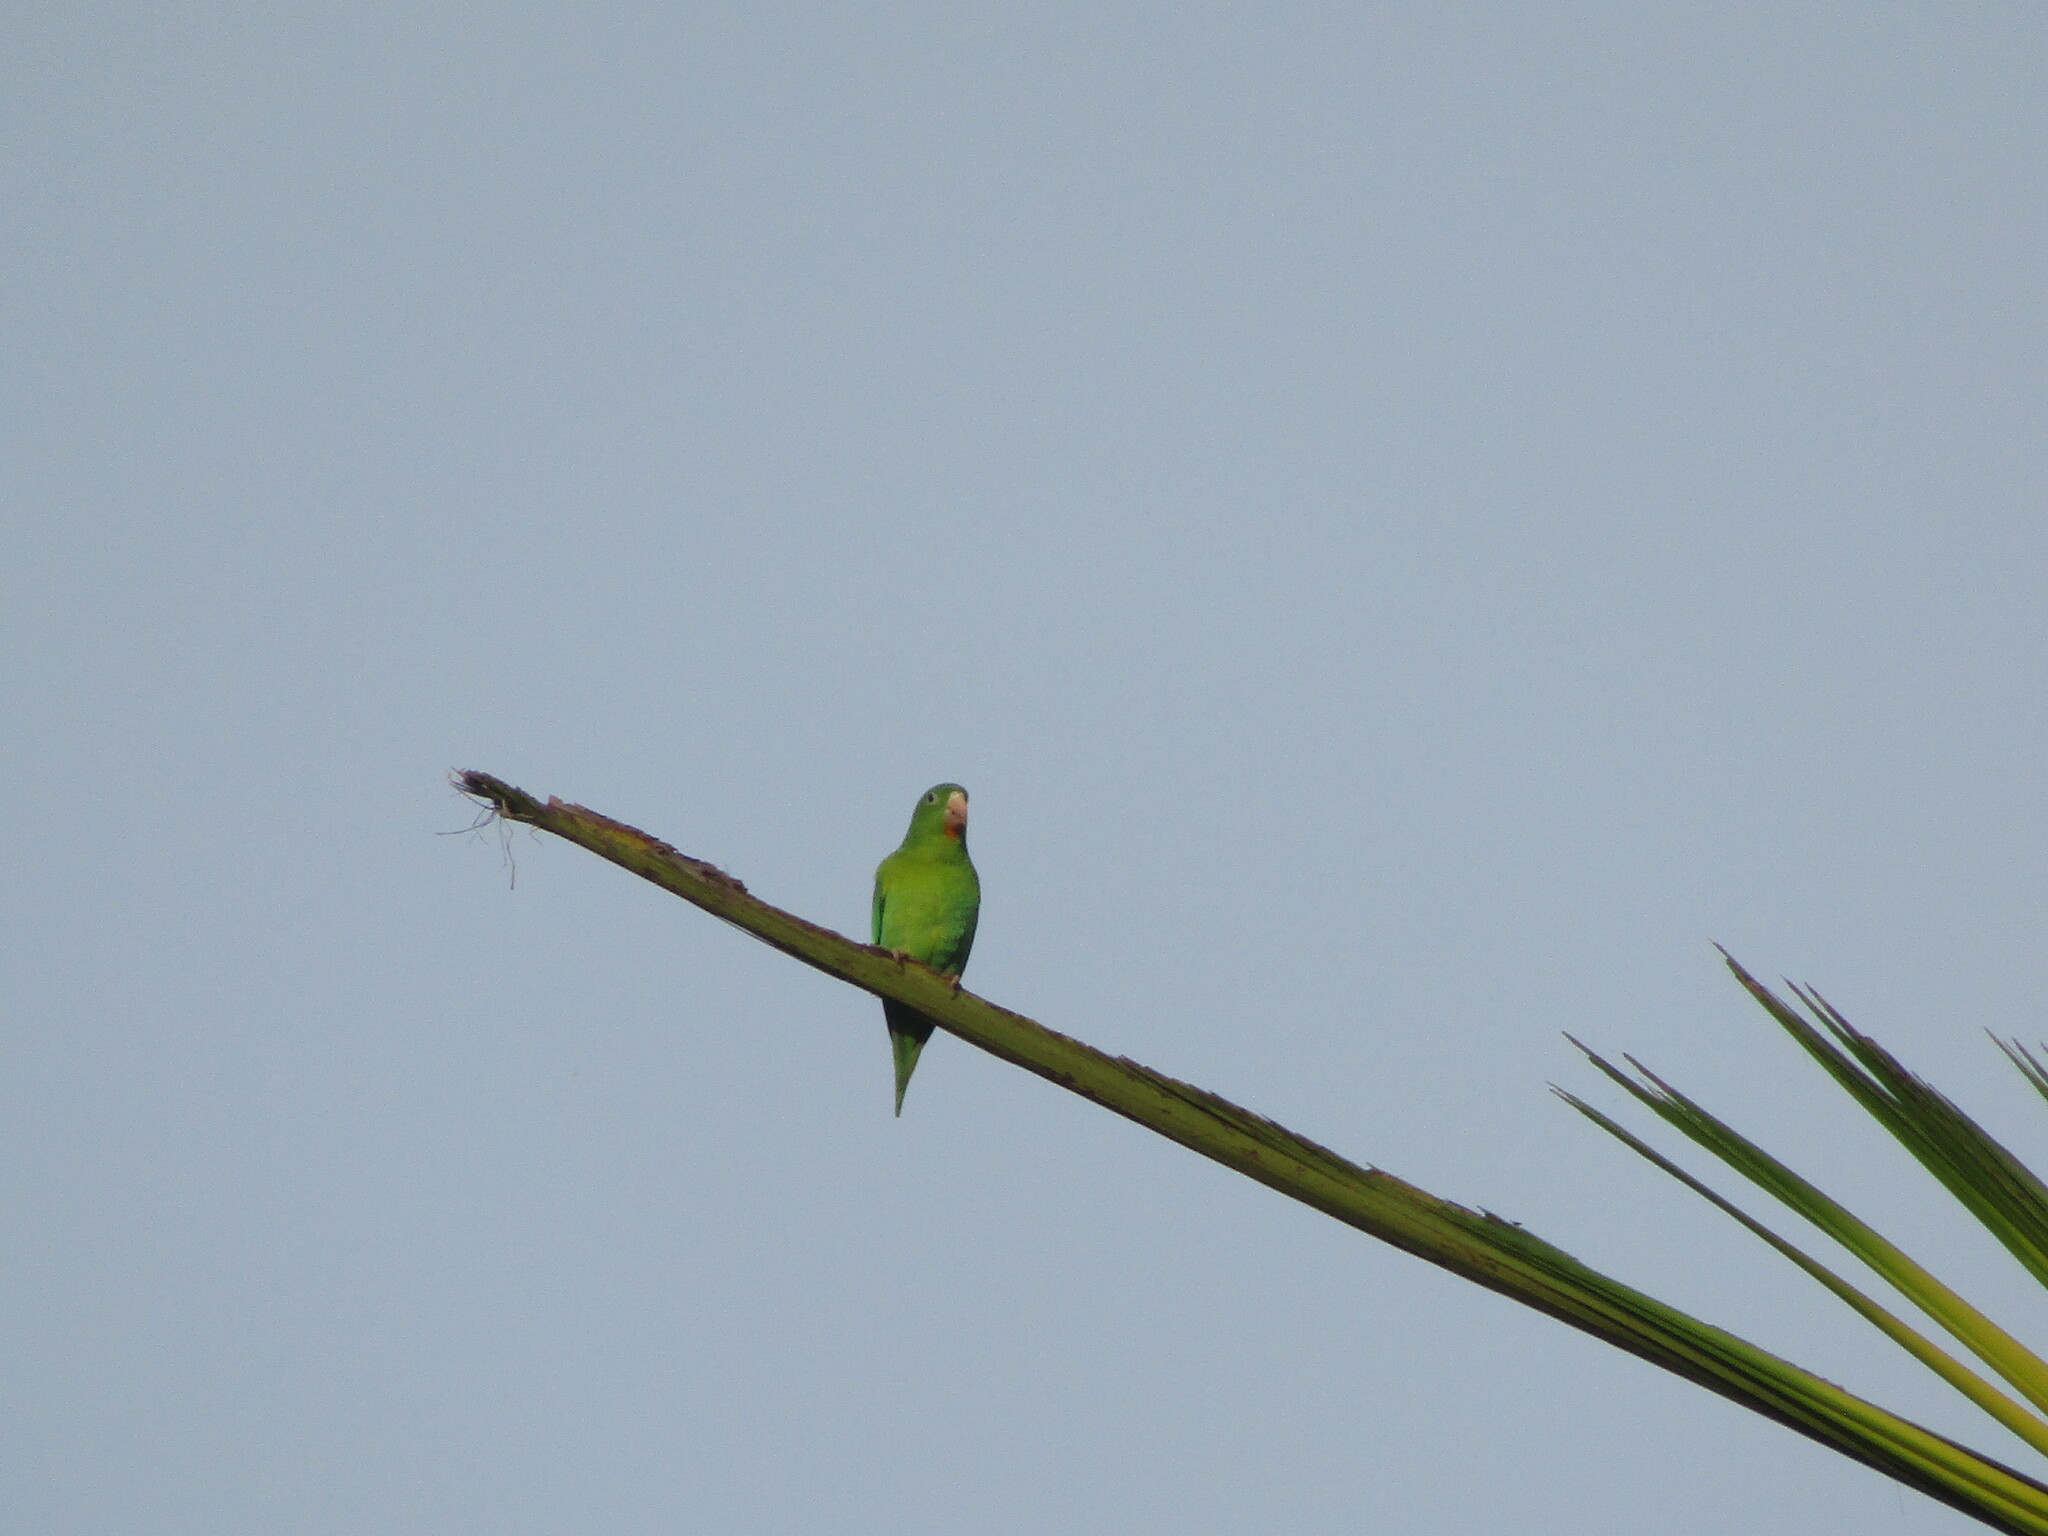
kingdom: Animalia
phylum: Chordata
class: Aves
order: Psittaciformes
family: Psittacidae
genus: Brotogeris
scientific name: Brotogeris jugularis
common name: Orange-chinned parakeet
